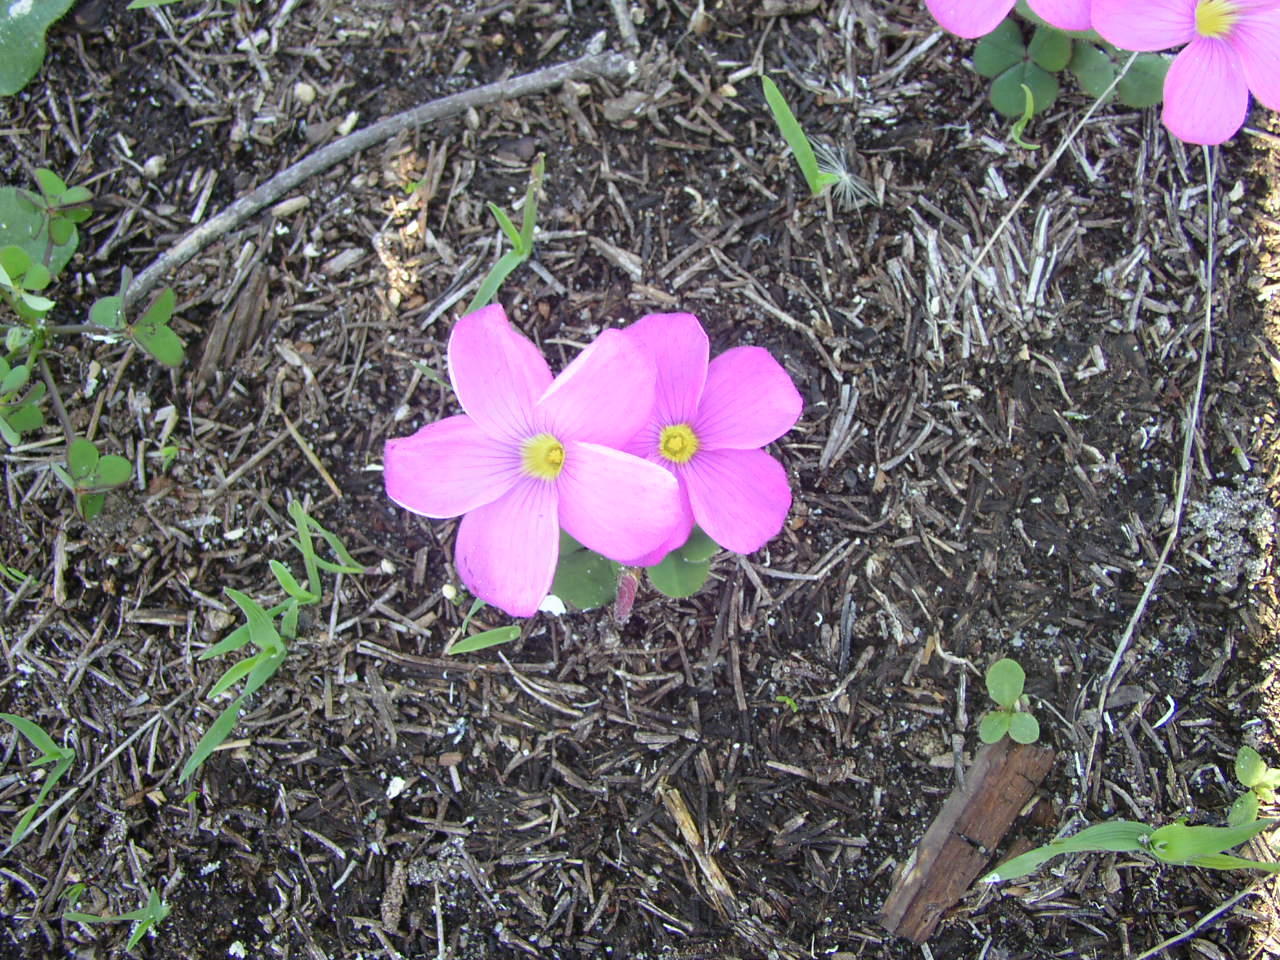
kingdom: Plantae
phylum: Tracheophyta
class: Magnoliopsida
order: Oxalidales
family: Oxalidaceae
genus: Oxalis
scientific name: Oxalis eckloniana
